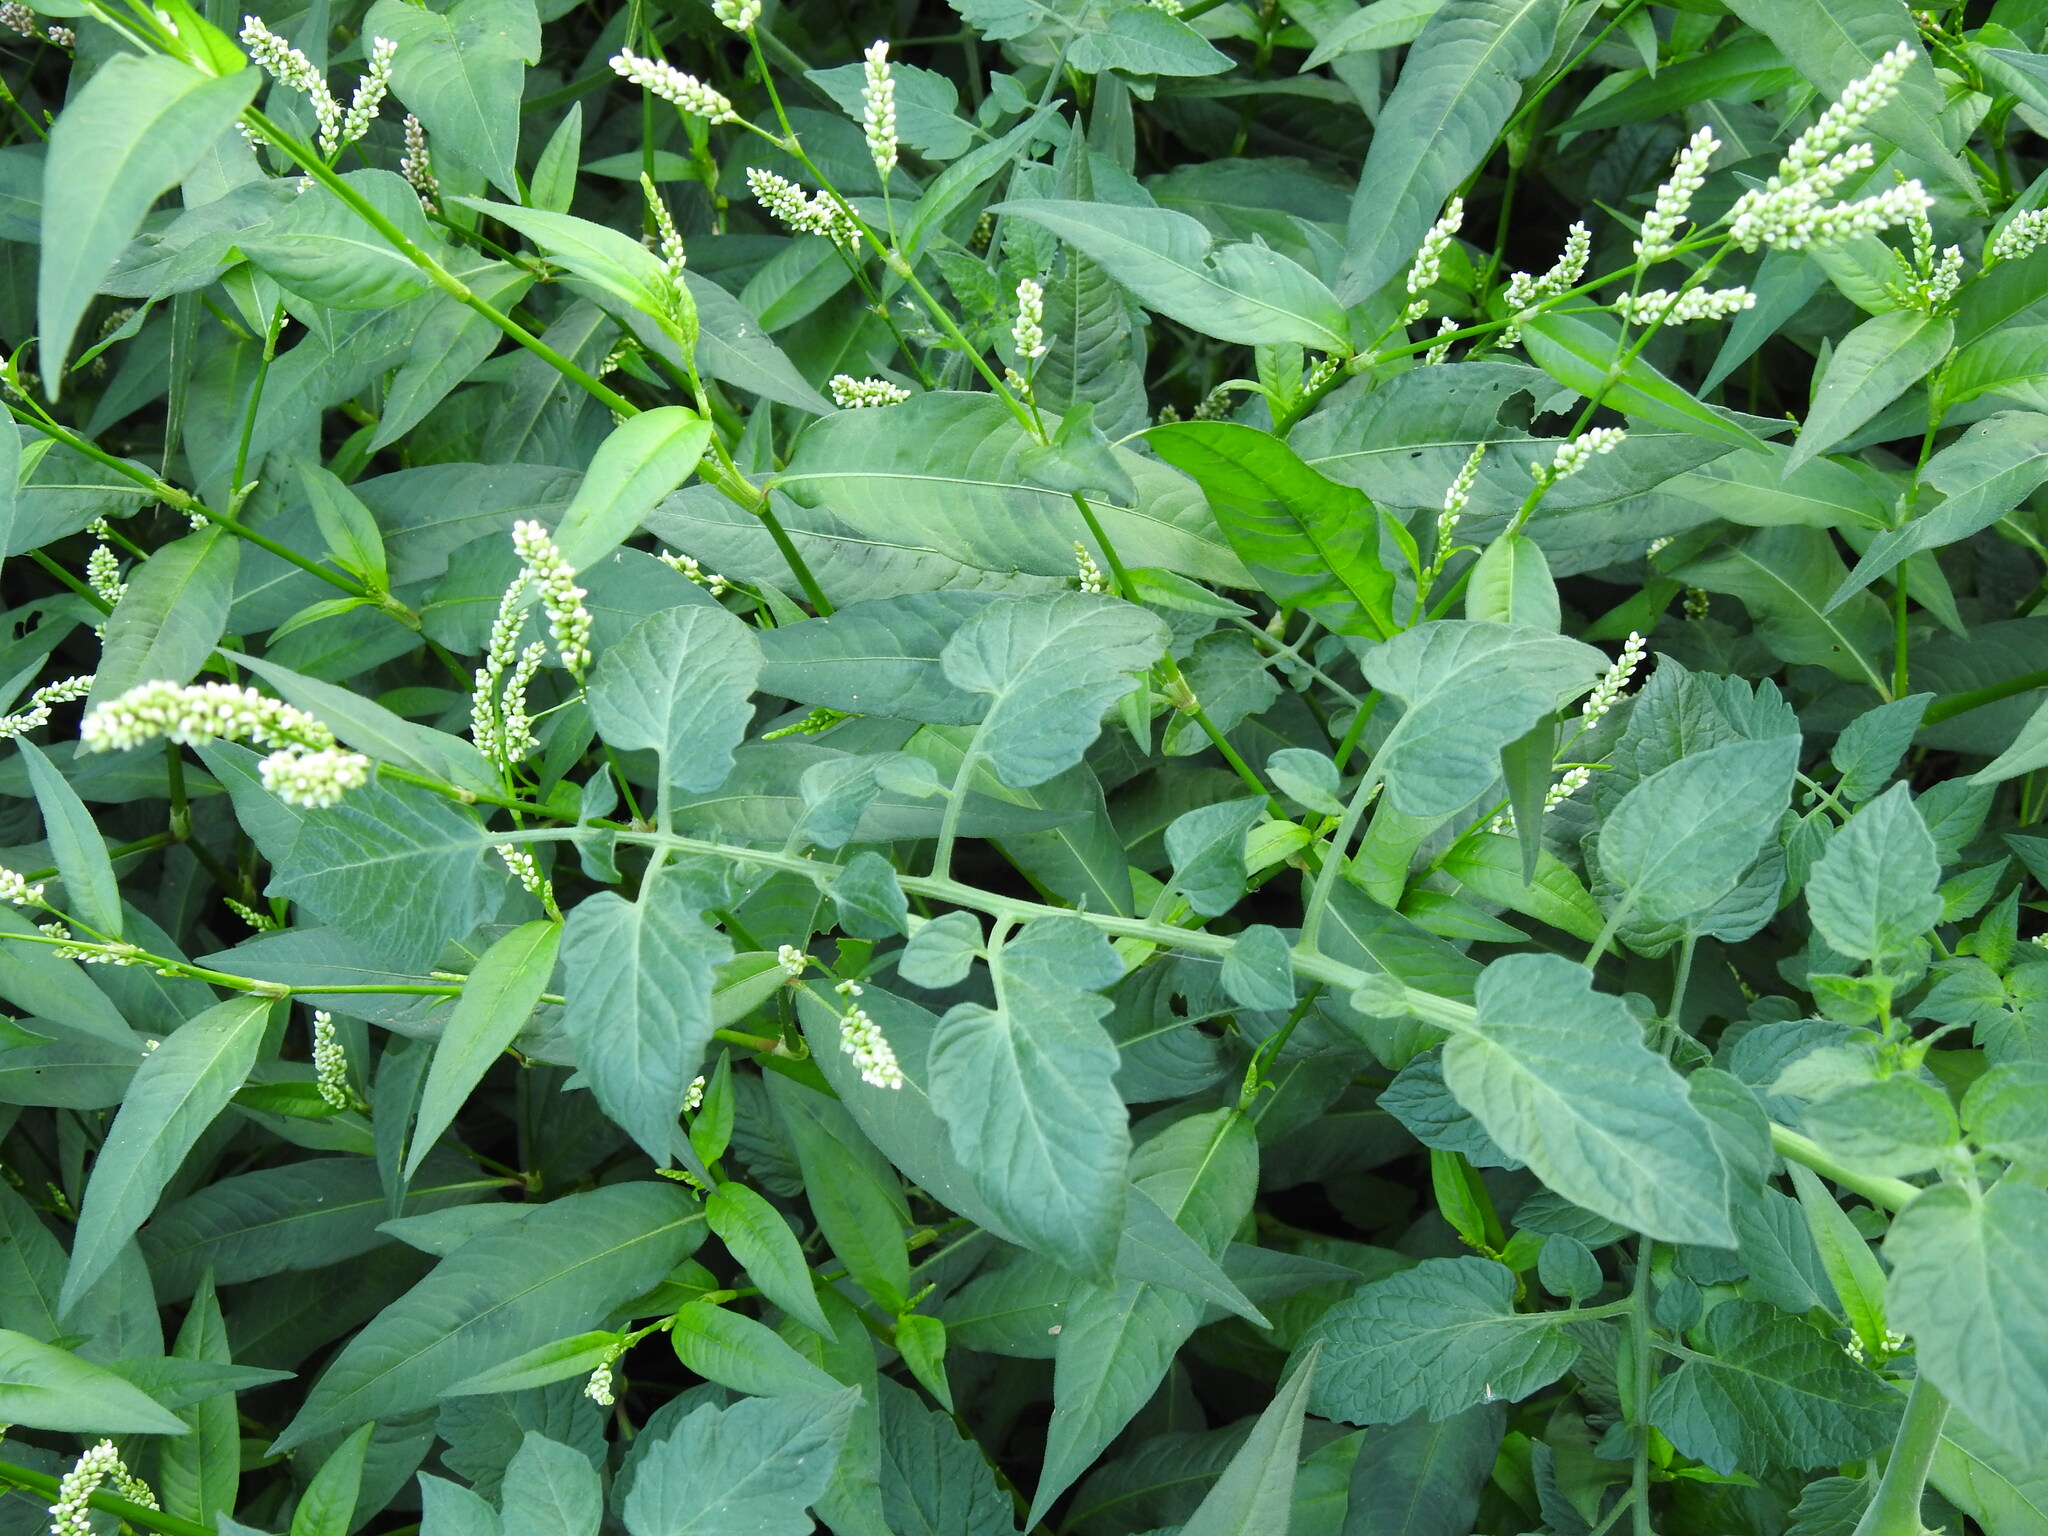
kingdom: Plantae
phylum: Tracheophyta
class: Magnoliopsida
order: Solanales
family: Solanaceae
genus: Solanum
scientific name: Solanum lycopersicum
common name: Garden tomato
